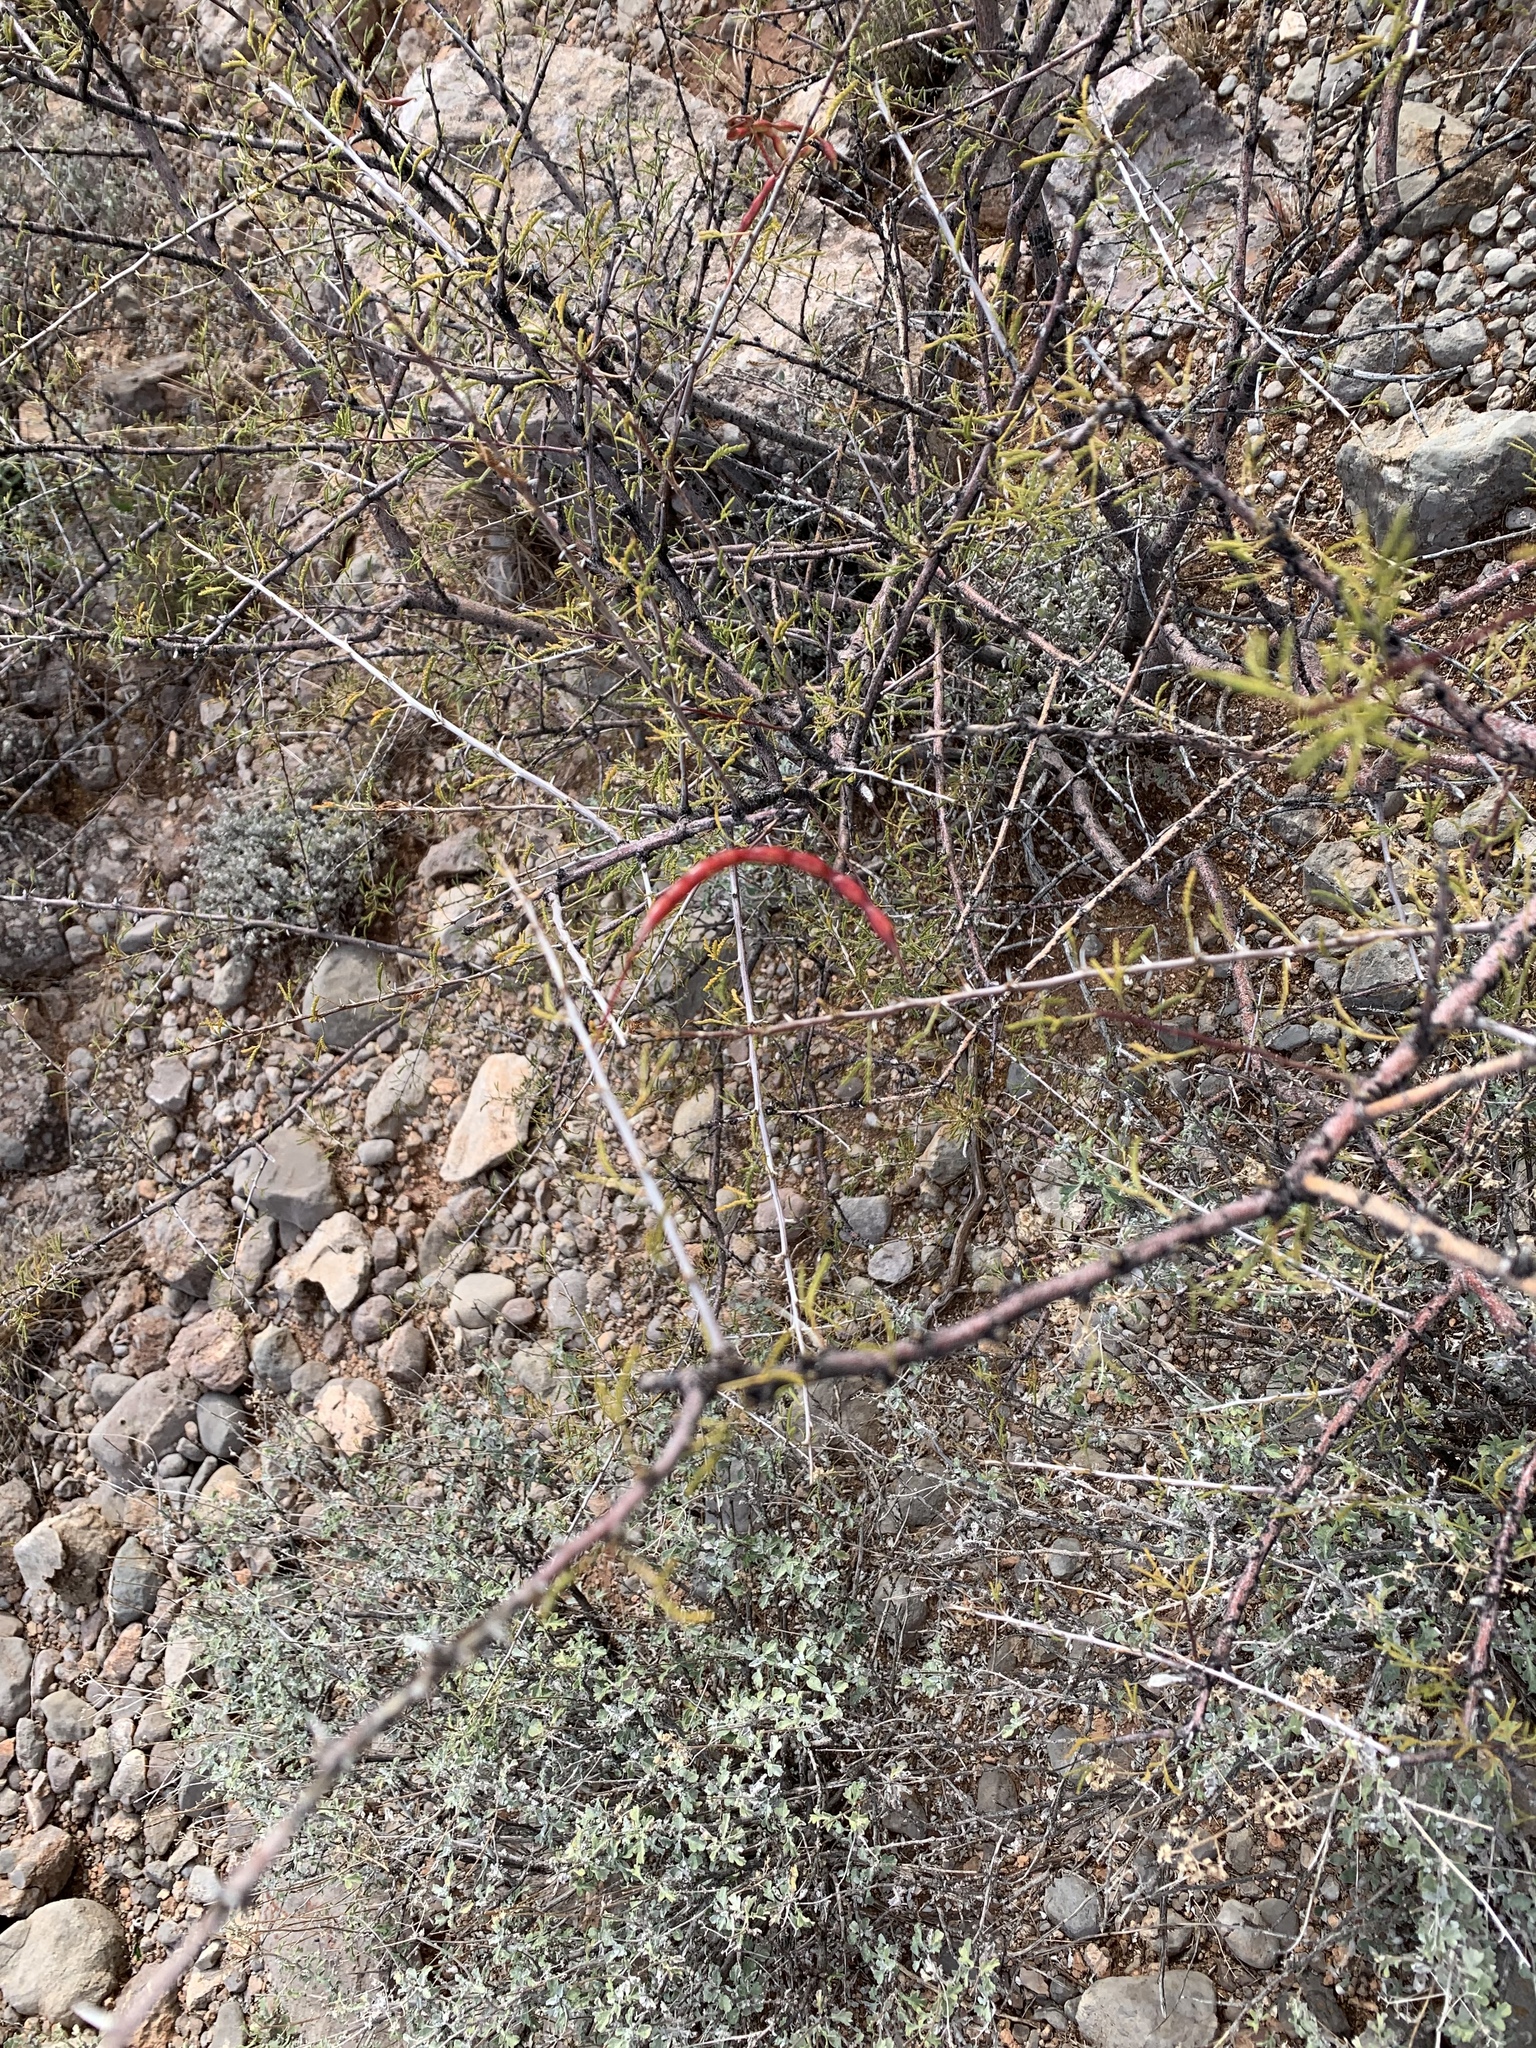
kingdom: Plantae
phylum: Tracheophyta
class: Magnoliopsida
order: Fabales
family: Fabaceae
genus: Vachellia
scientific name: Vachellia constricta
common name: Mescat acacia
